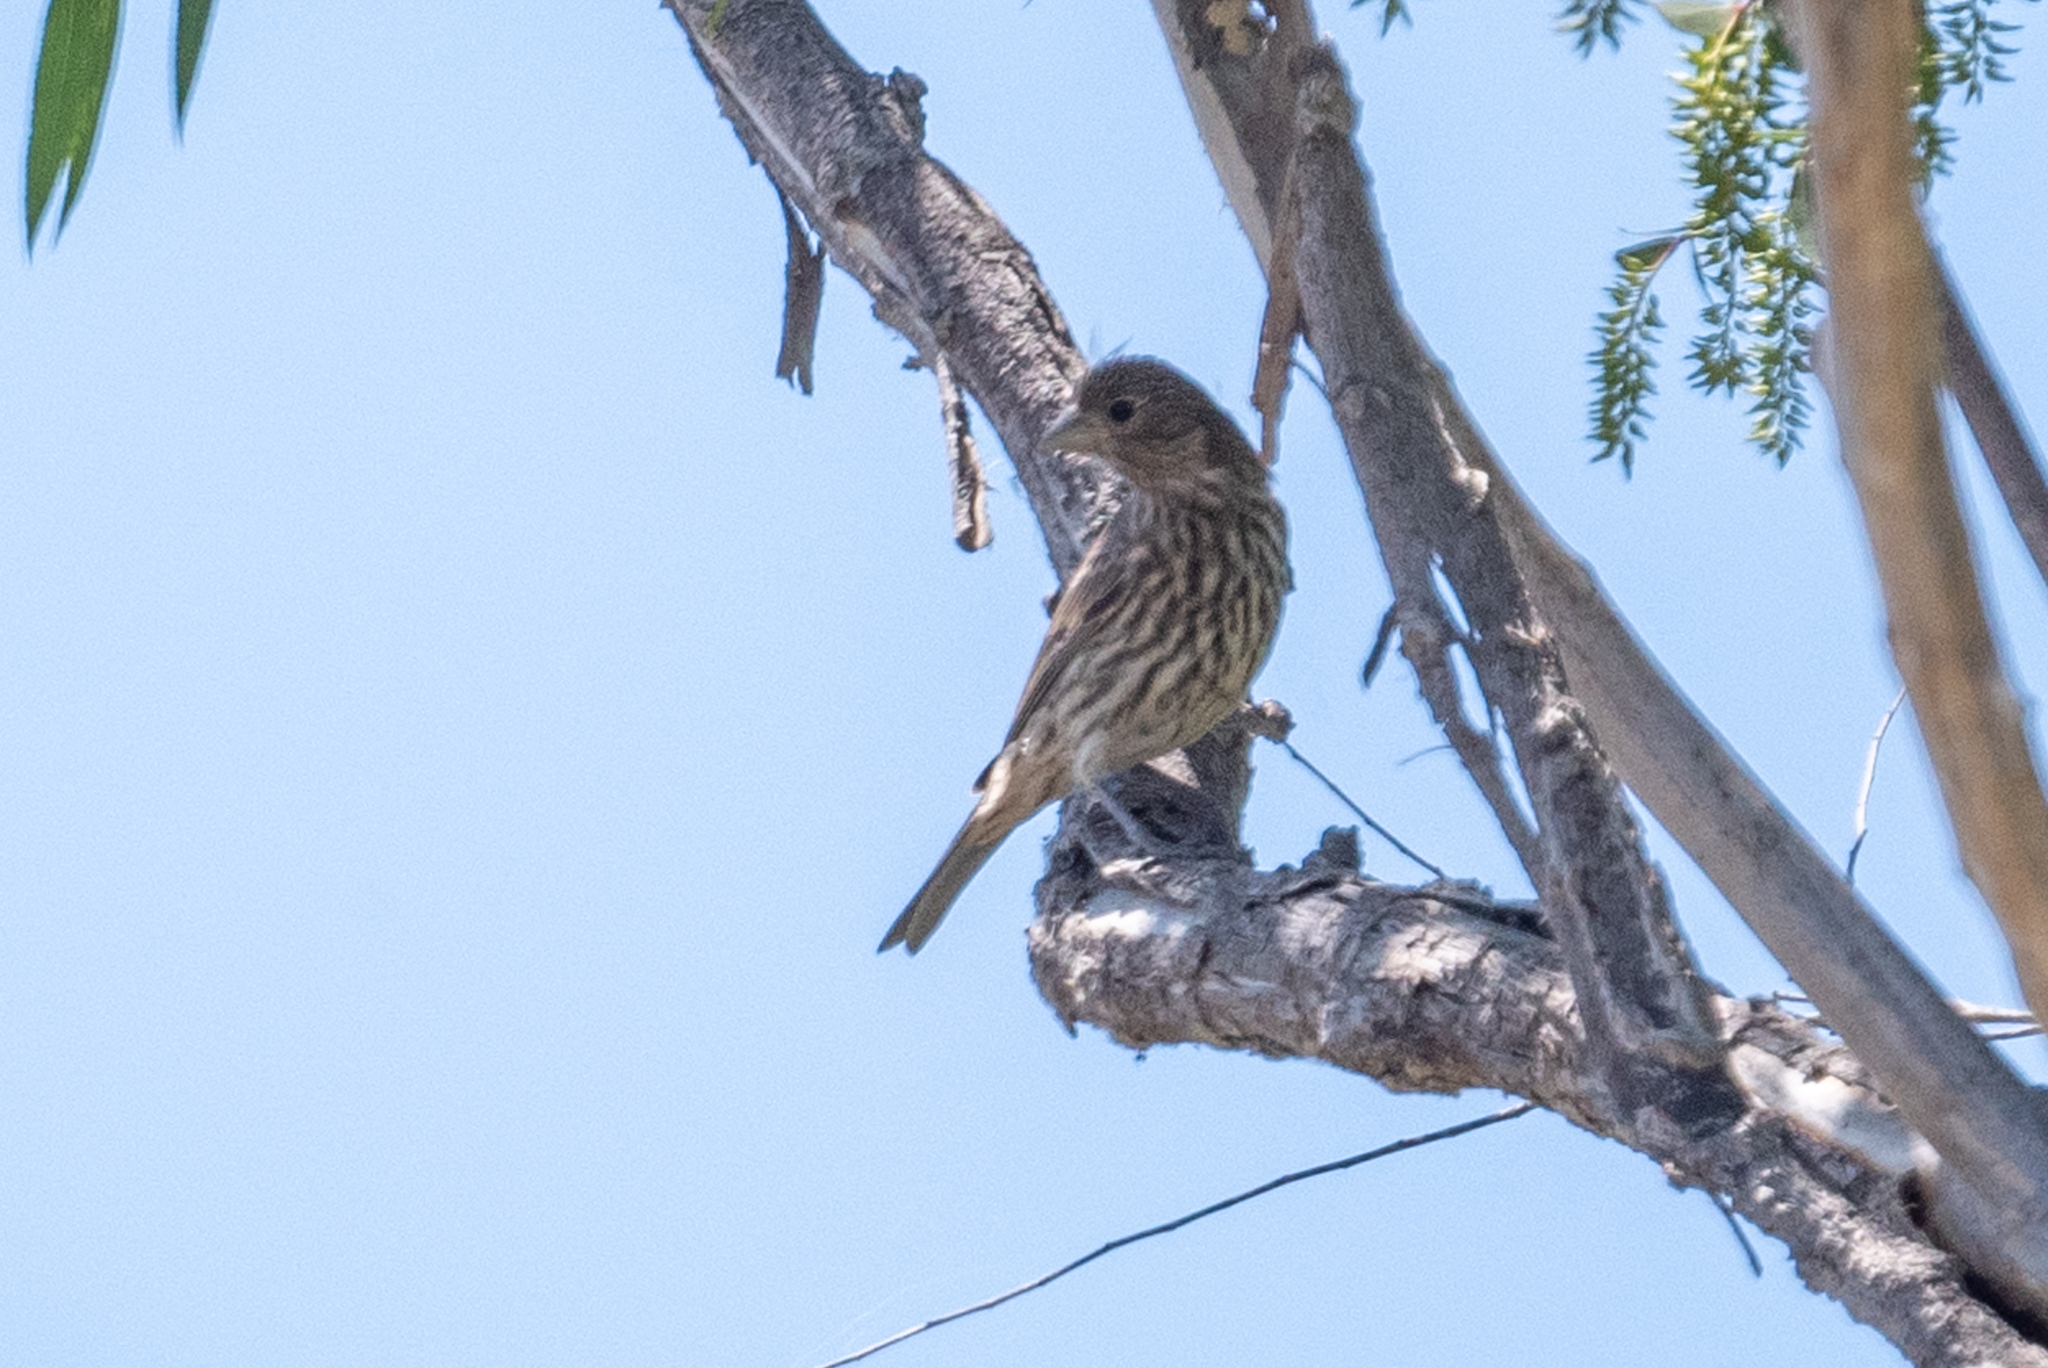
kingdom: Animalia
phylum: Chordata
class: Aves
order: Passeriformes
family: Fringillidae
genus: Haemorhous
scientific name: Haemorhous mexicanus
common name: House finch
